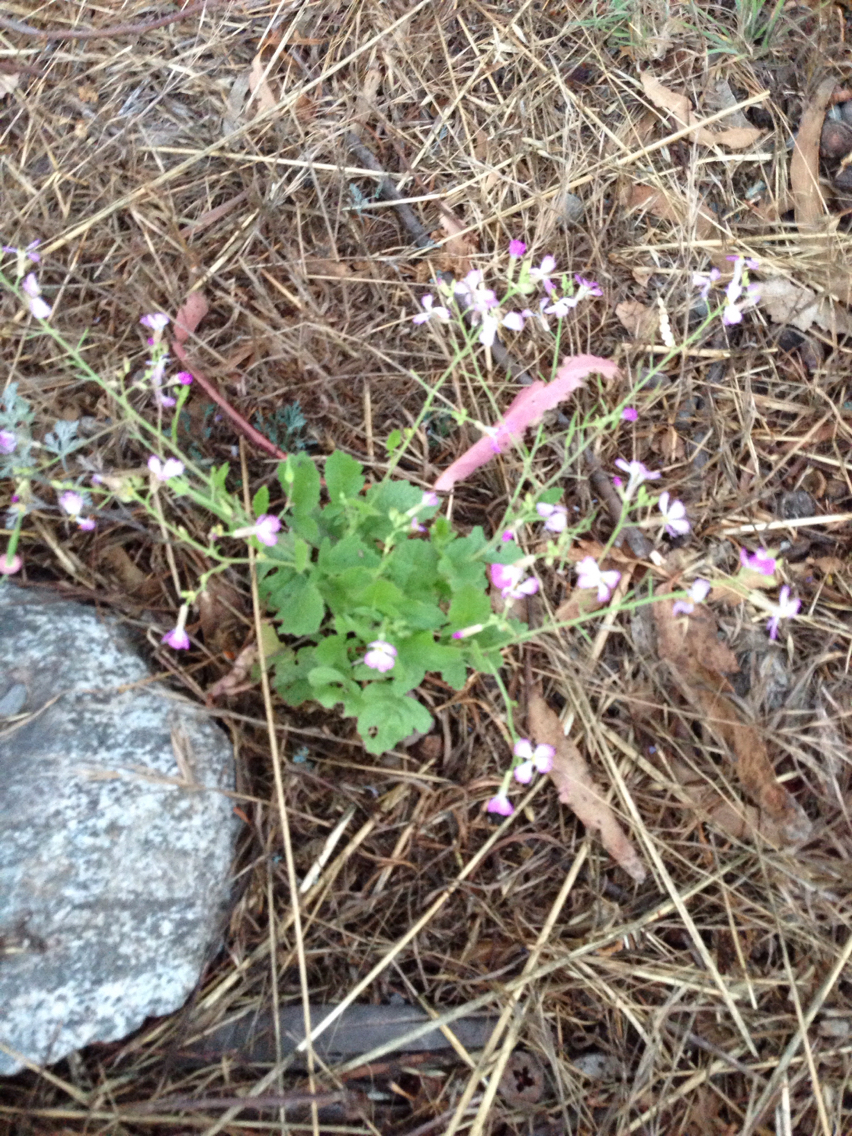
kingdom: Plantae
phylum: Tracheophyta
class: Magnoliopsida
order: Brassicales
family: Brassicaceae
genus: Raphanus
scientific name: Raphanus sativus
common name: Cultivated radish
